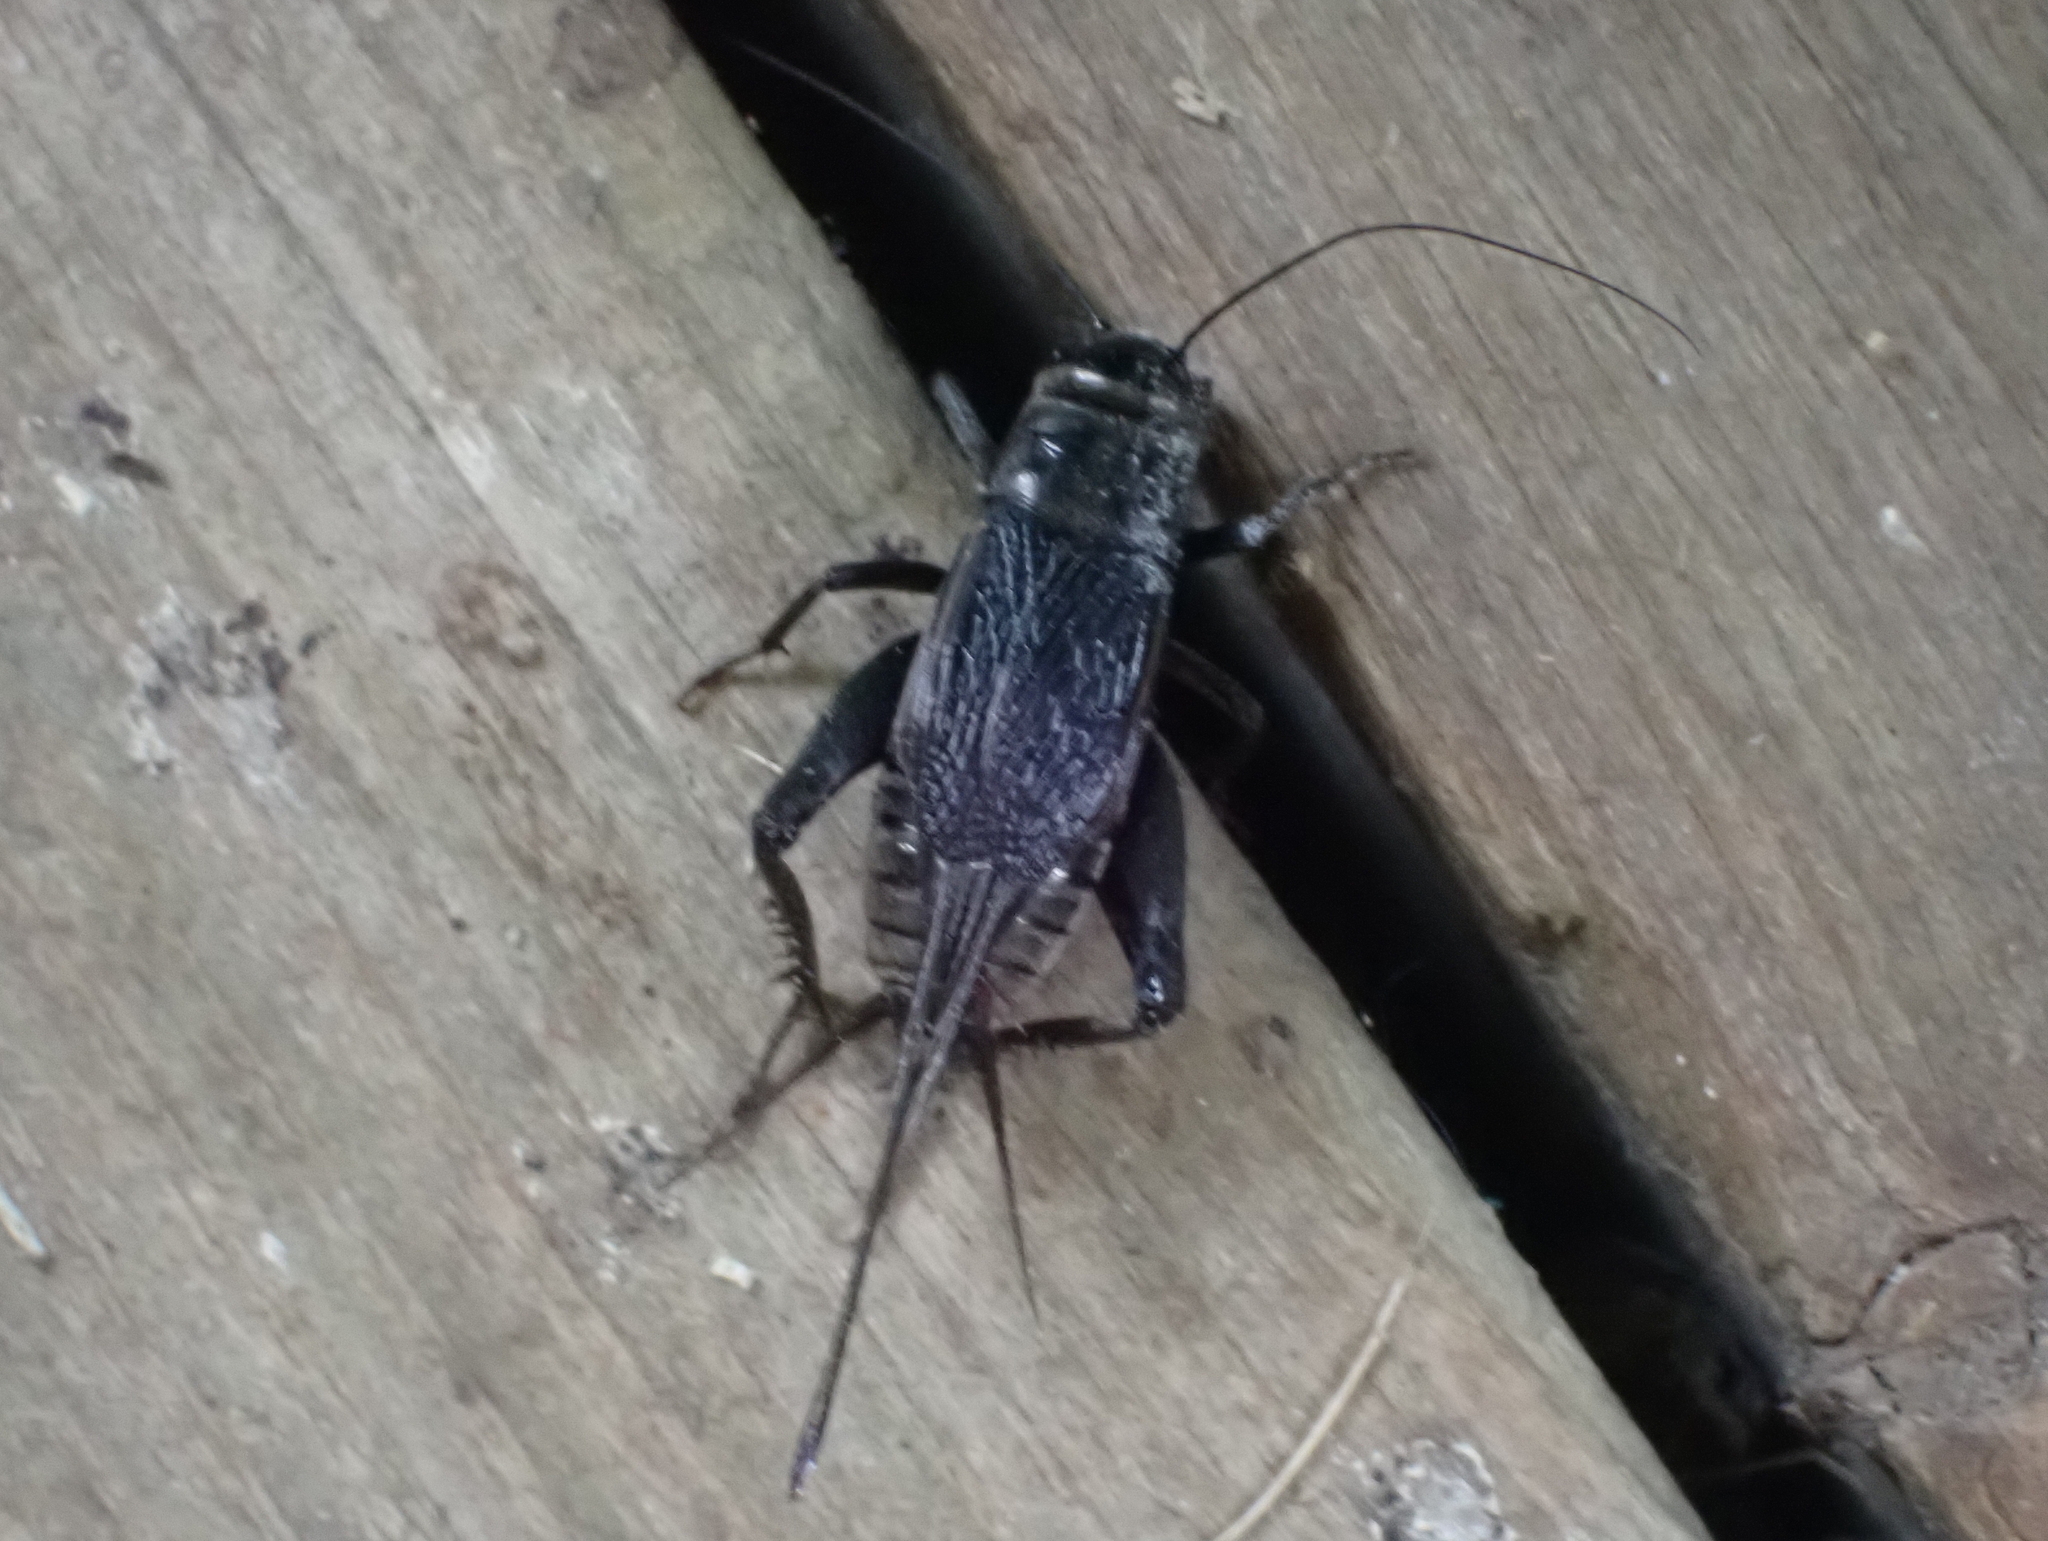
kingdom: Animalia
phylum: Arthropoda
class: Insecta
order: Orthoptera
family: Gryllidae
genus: Gryllus
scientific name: Gryllus pennsylvanicus
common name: Fall field cricket
